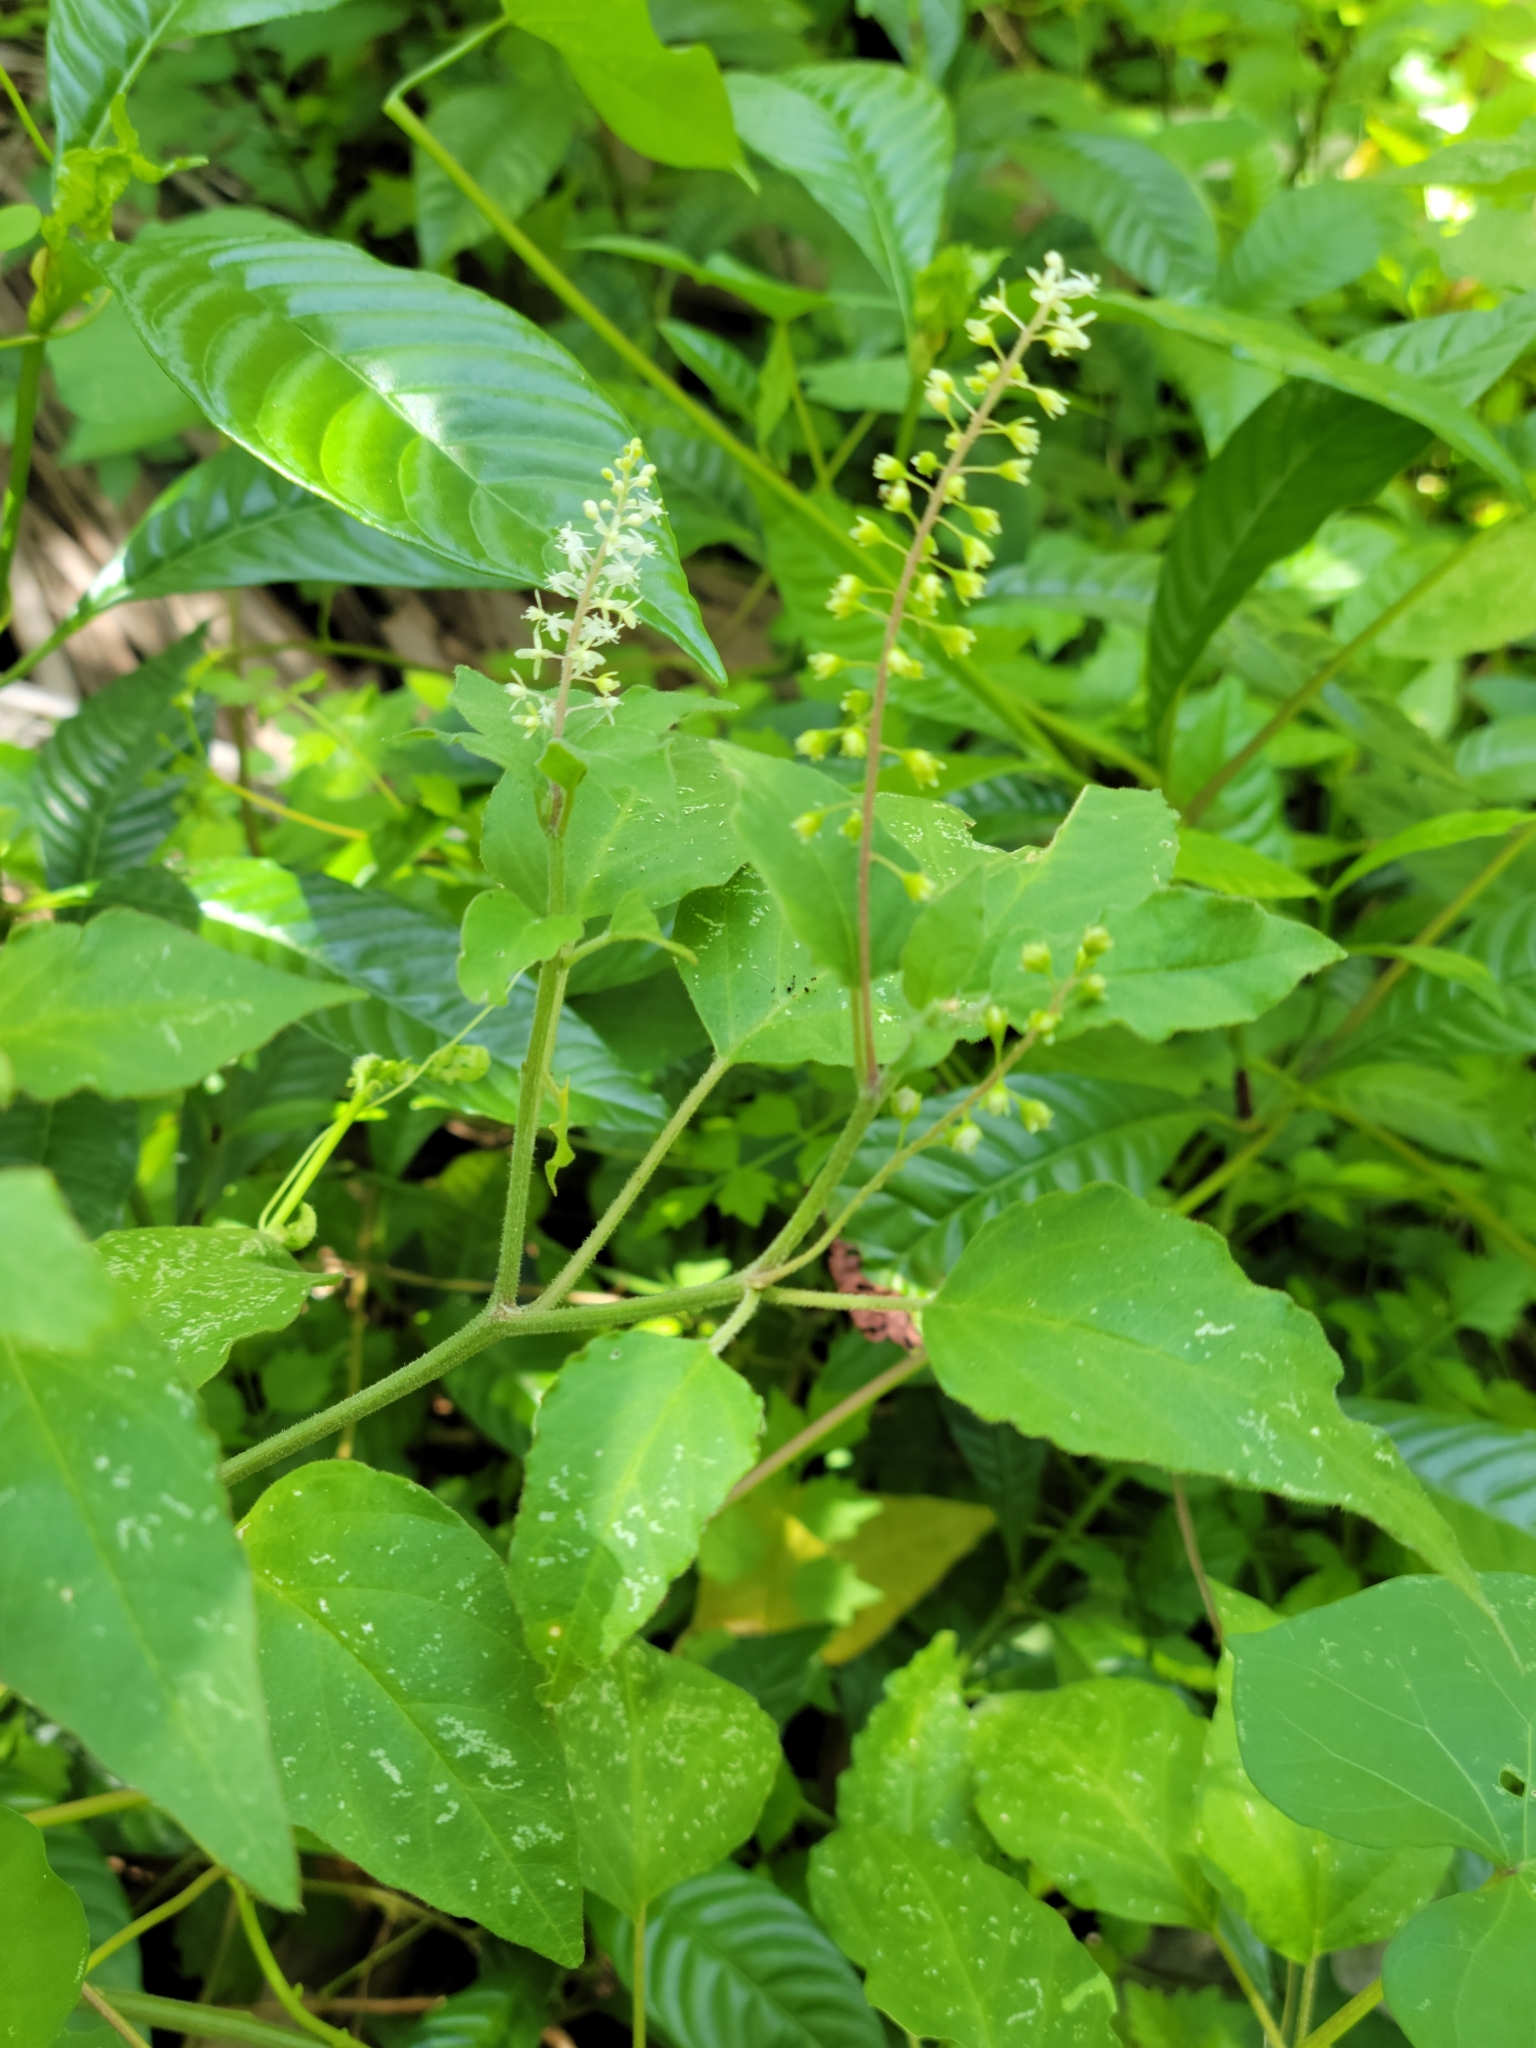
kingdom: Plantae
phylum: Tracheophyta
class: Magnoliopsida
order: Caryophyllales
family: Phytolaccaceae
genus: Rivina
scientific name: Rivina humilis
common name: Rougeplant
